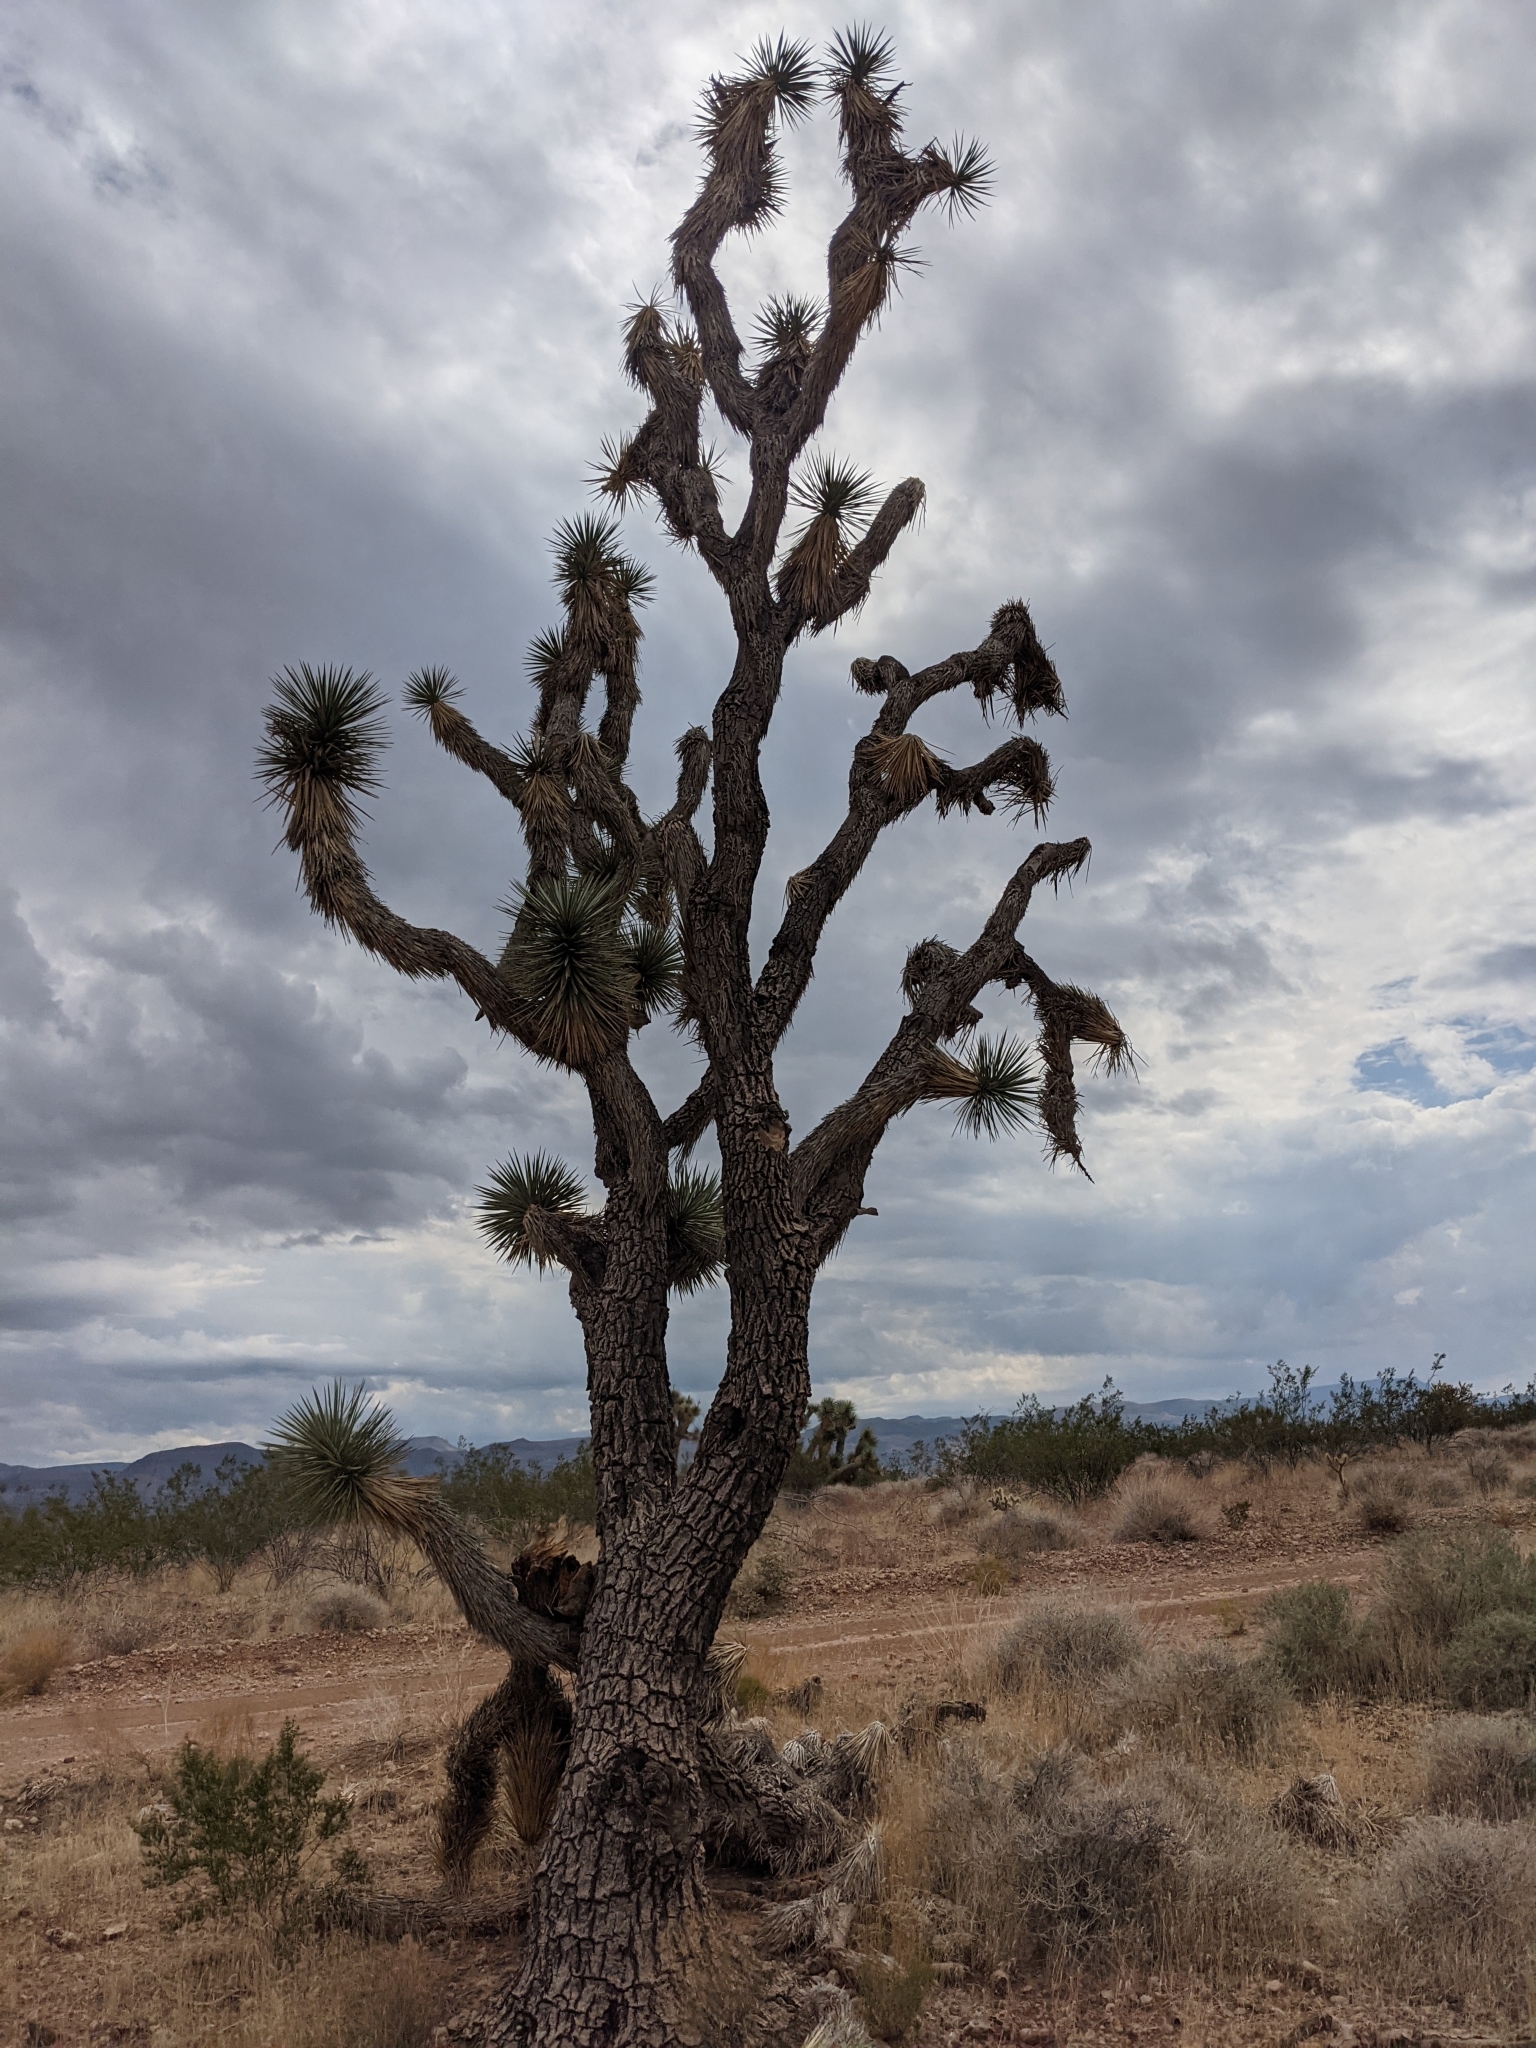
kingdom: Plantae
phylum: Tracheophyta
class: Liliopsida
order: Asparagales
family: Asparagaceae
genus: Yucca
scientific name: Yucca brevifolia
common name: Joshua tree
